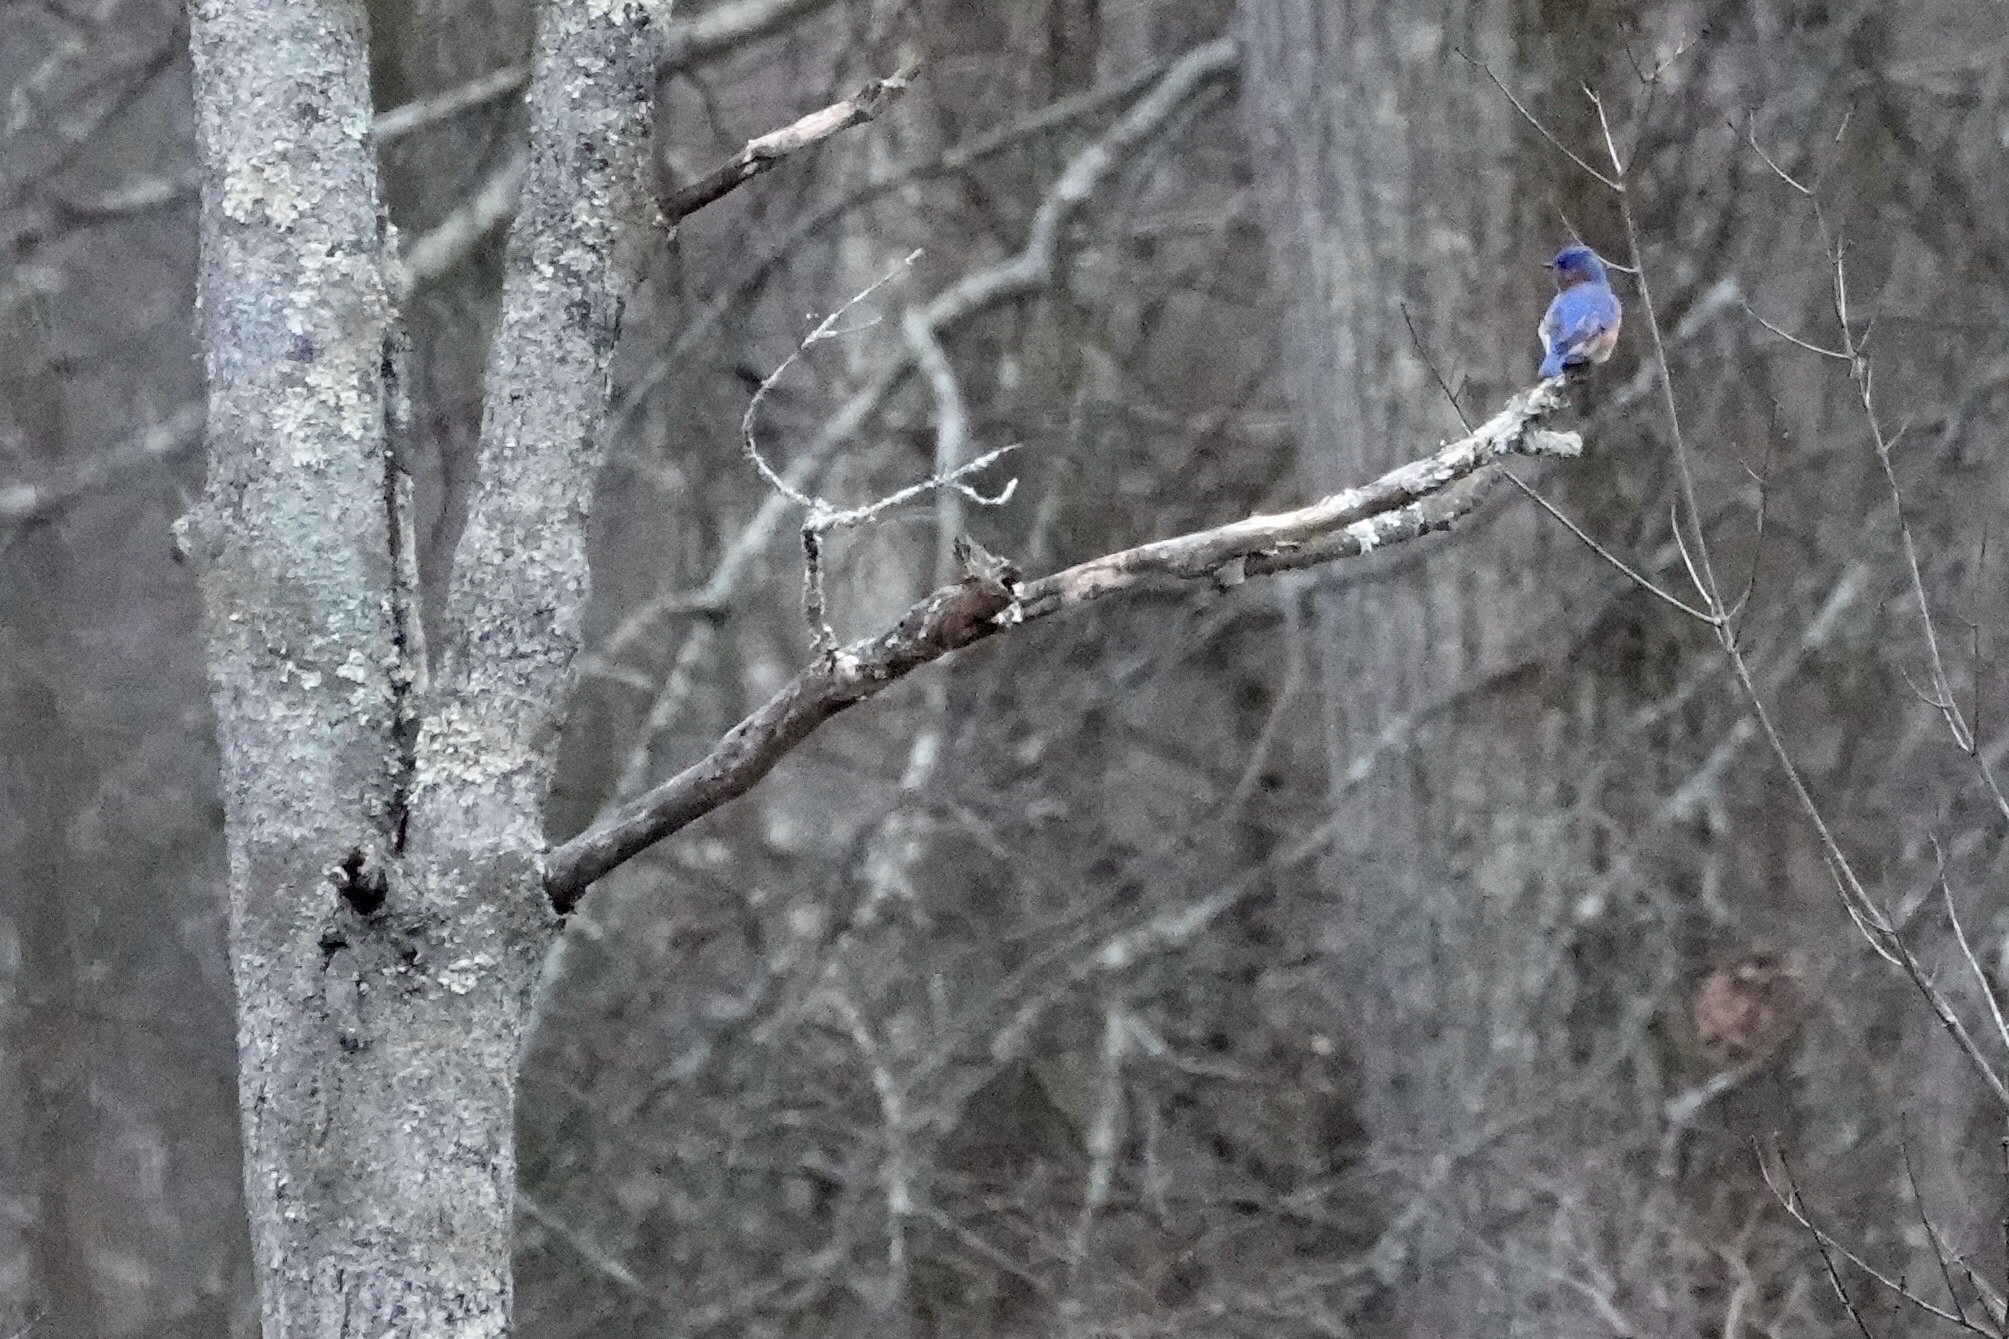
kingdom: Animalia
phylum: Chordata
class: Aves
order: Passeriformes
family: Turdidae
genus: Sialia
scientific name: Sialia sialis
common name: Eastern bluebird
